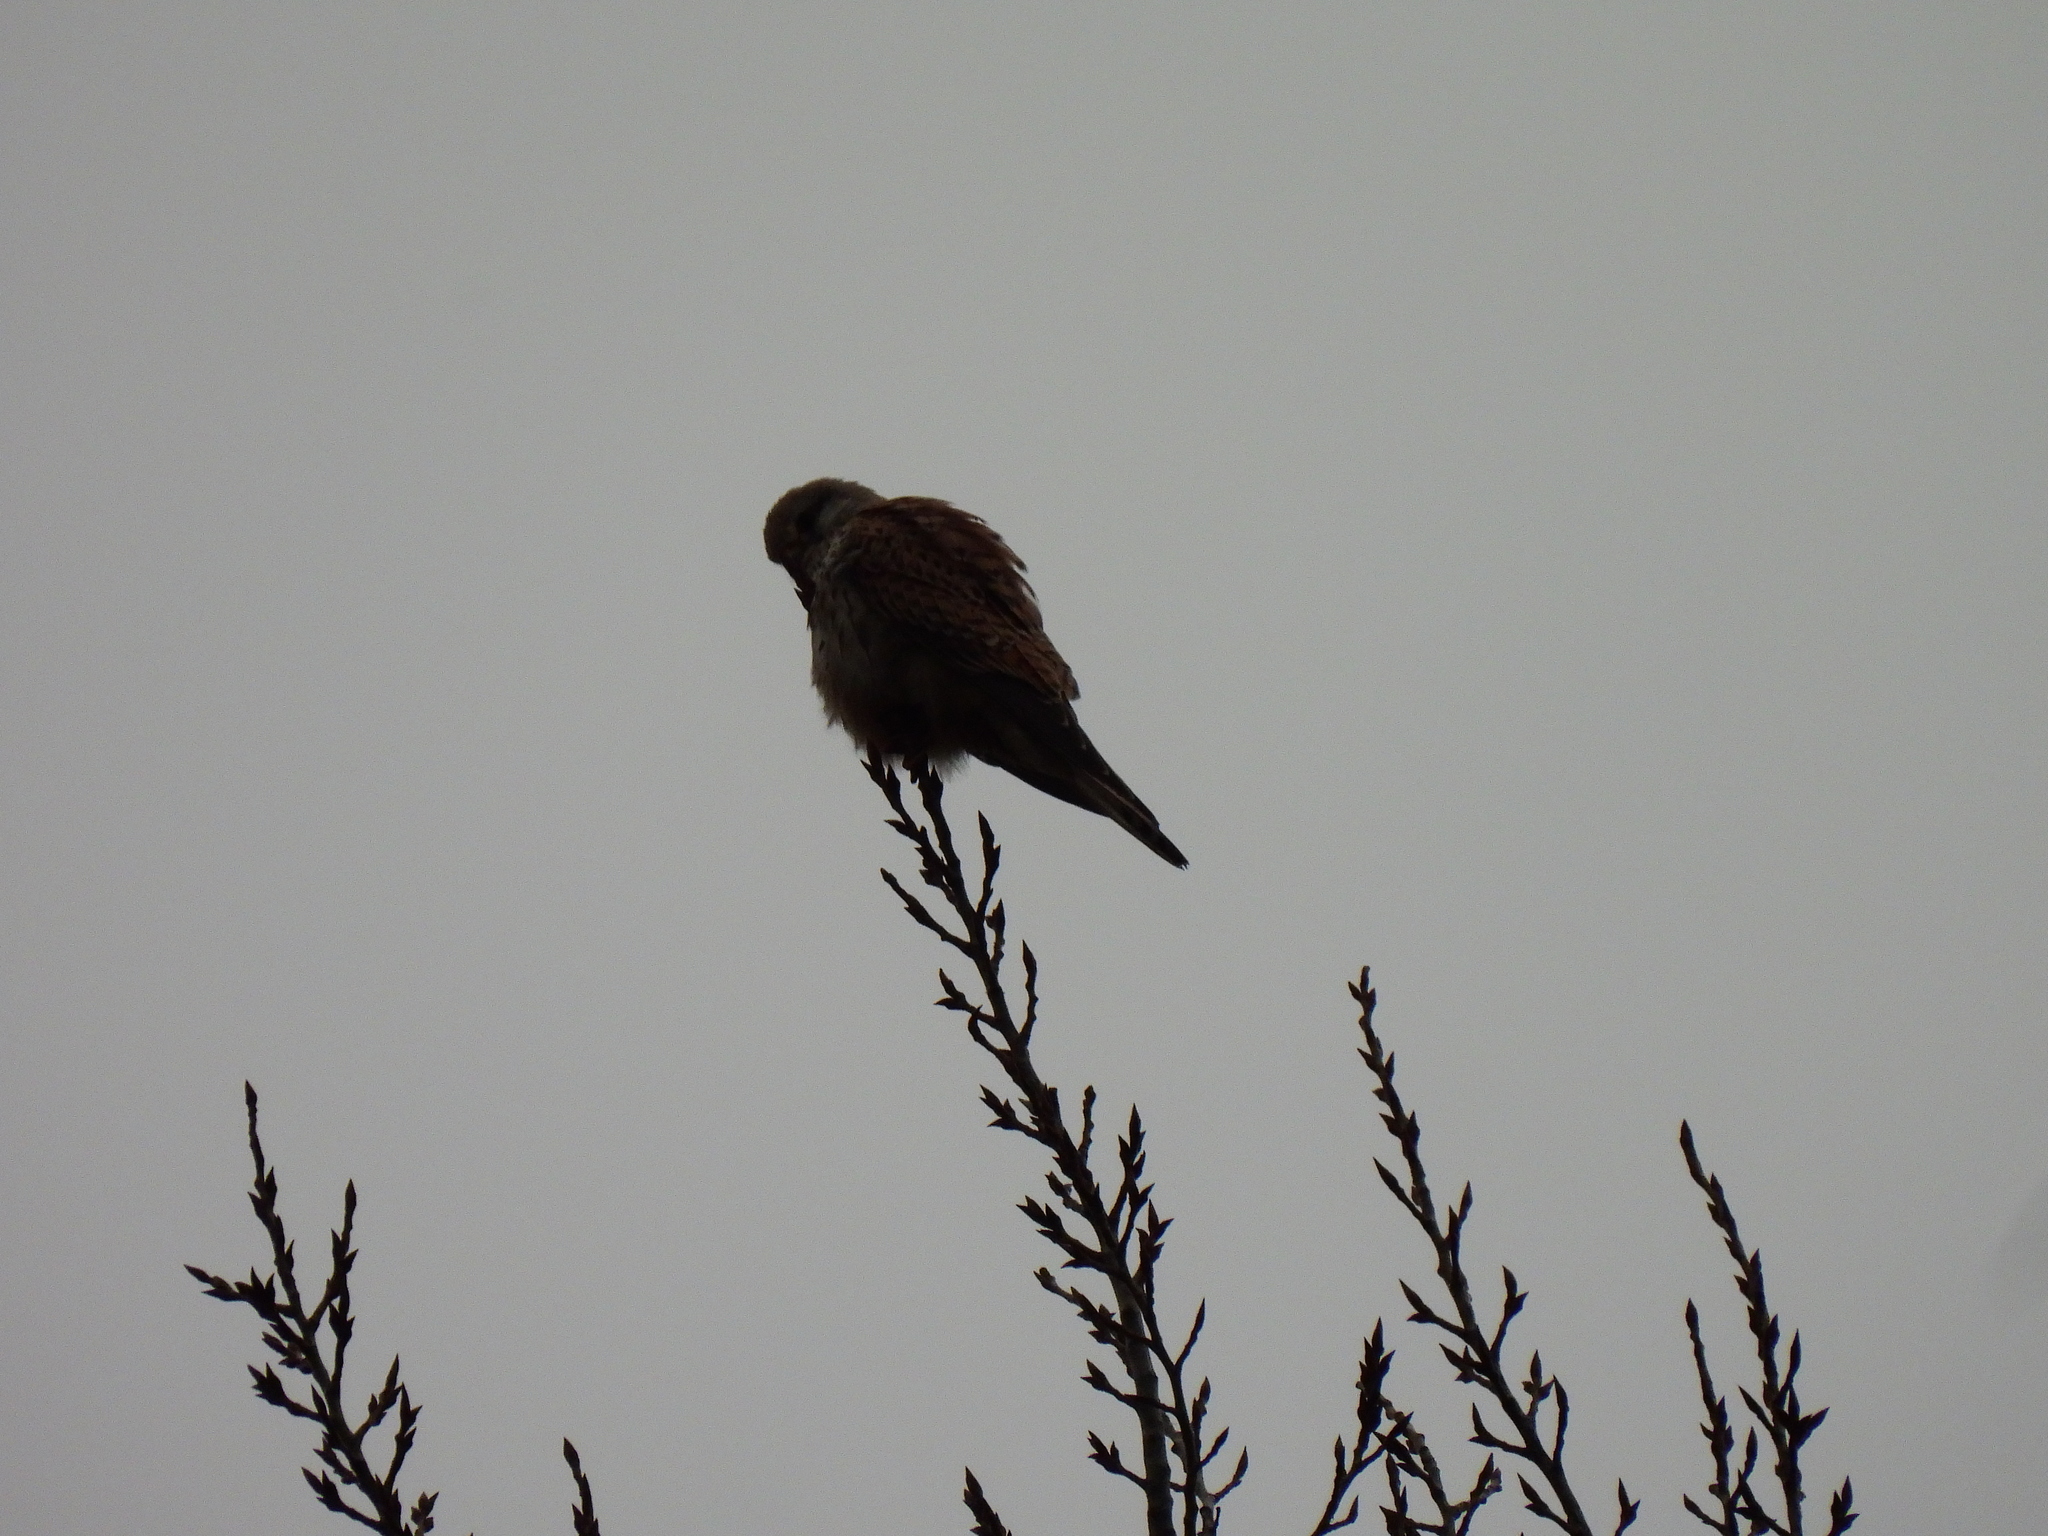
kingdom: Animalia
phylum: Chordata
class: Aves
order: Falconiformes
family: Falconidae
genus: Falco
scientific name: Falco tinnunculus
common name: Common kestrel
